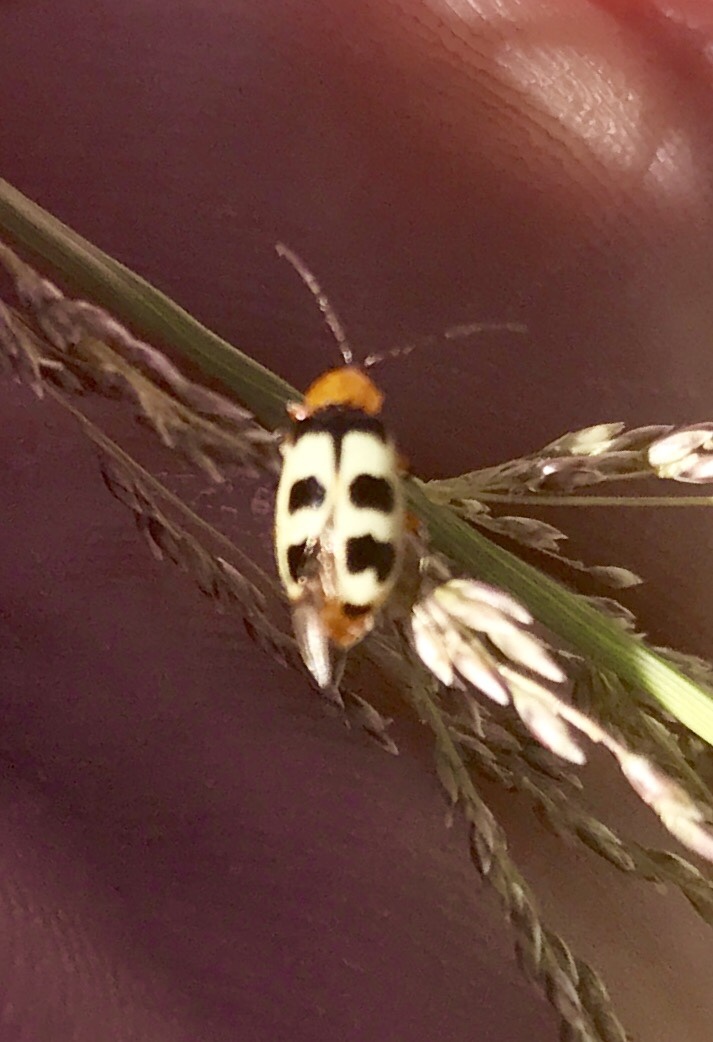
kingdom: Animalia
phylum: Arthropoda
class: Insecta
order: Coleoptera
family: Chrysomelidae
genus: Paranapiacaba
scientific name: Paranapiacaba tricincta
